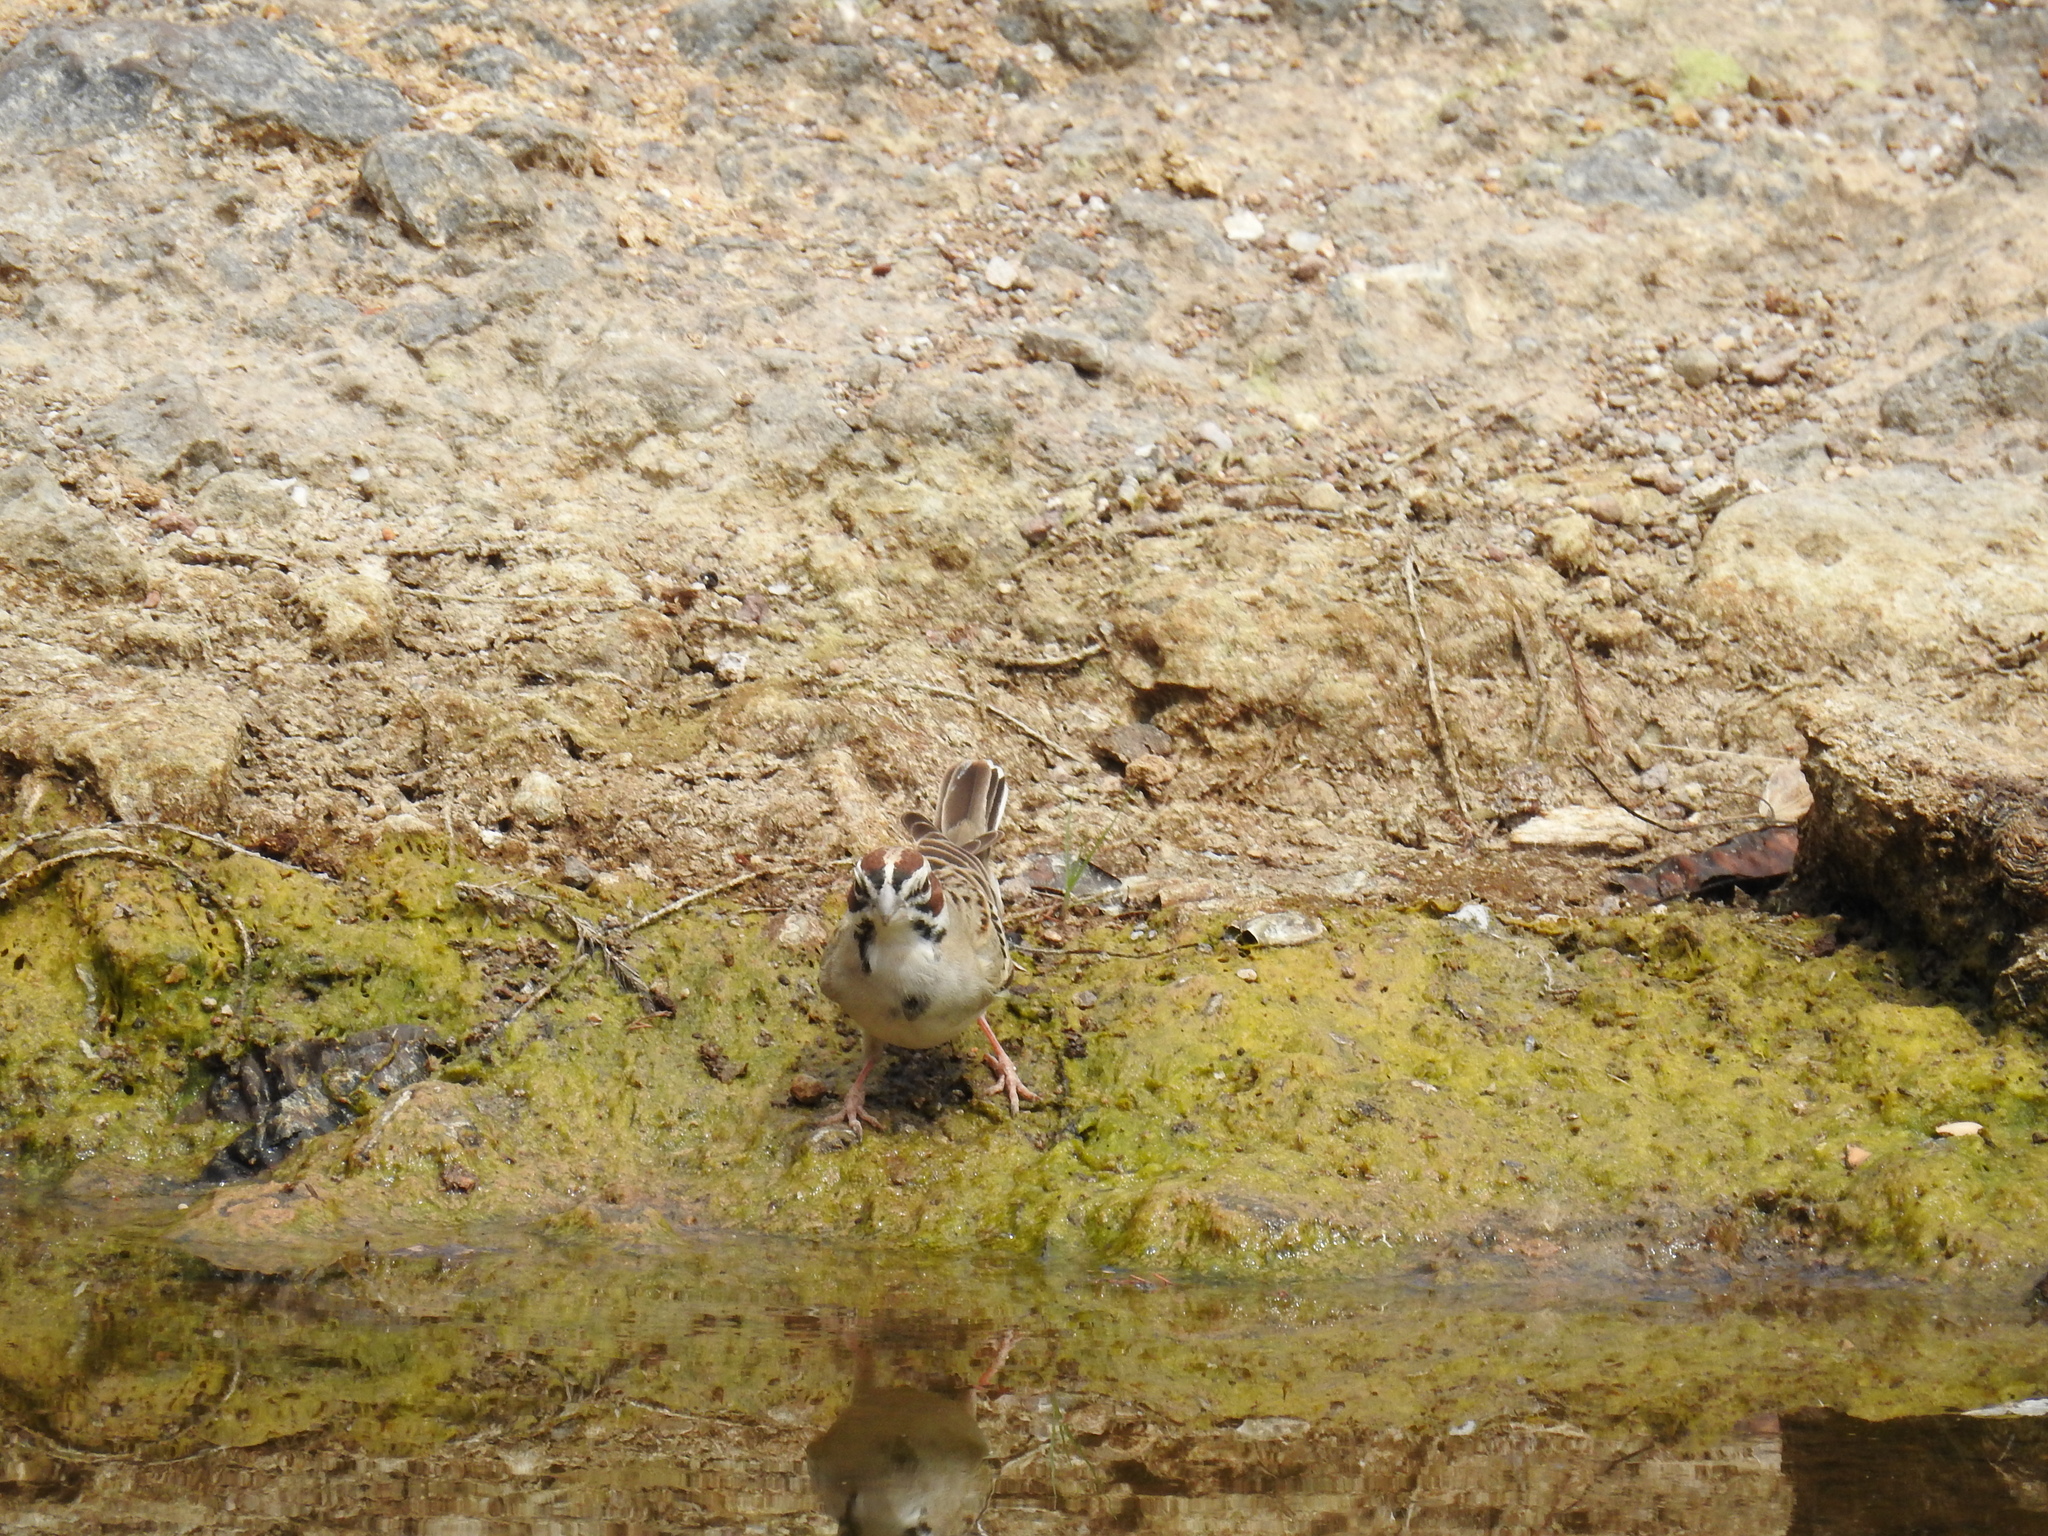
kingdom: Animalia
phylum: Chordata
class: Aves
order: Passeriformes
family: Passerellidae
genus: Chondestes
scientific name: Chondestes grammacus
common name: Lark sparrow
